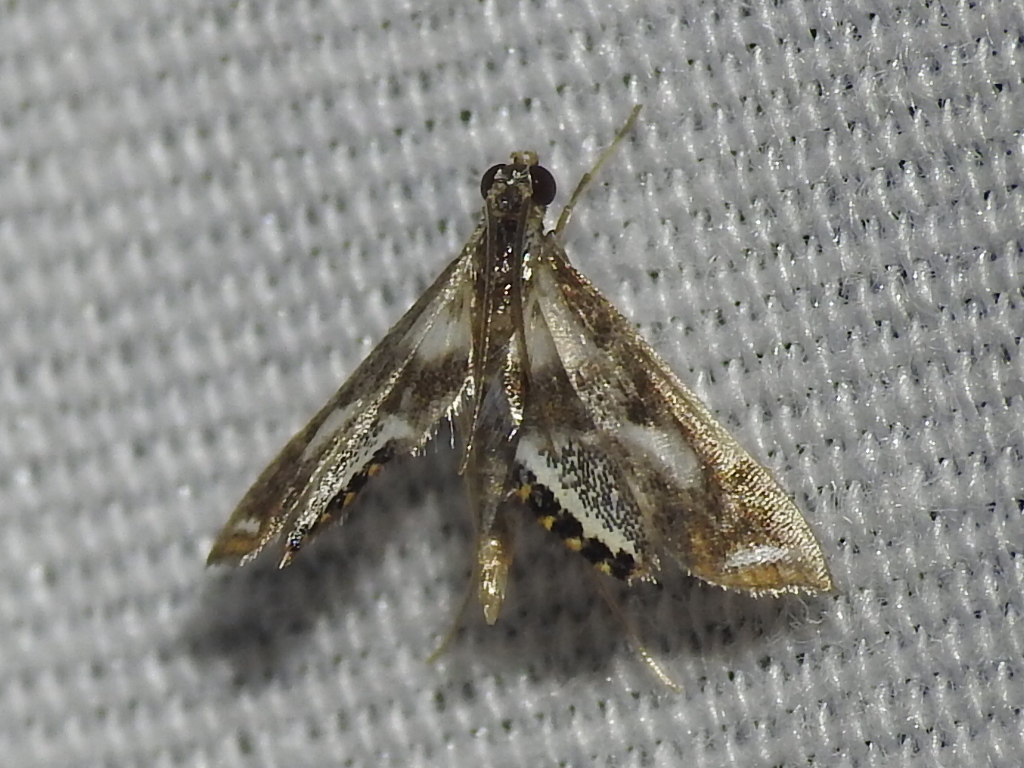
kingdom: Animalia
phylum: Arthropoda
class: Insecta
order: Lepidoptera
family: Crambidae
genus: Chrysendeton
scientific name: Chrysendeton imitabilis
